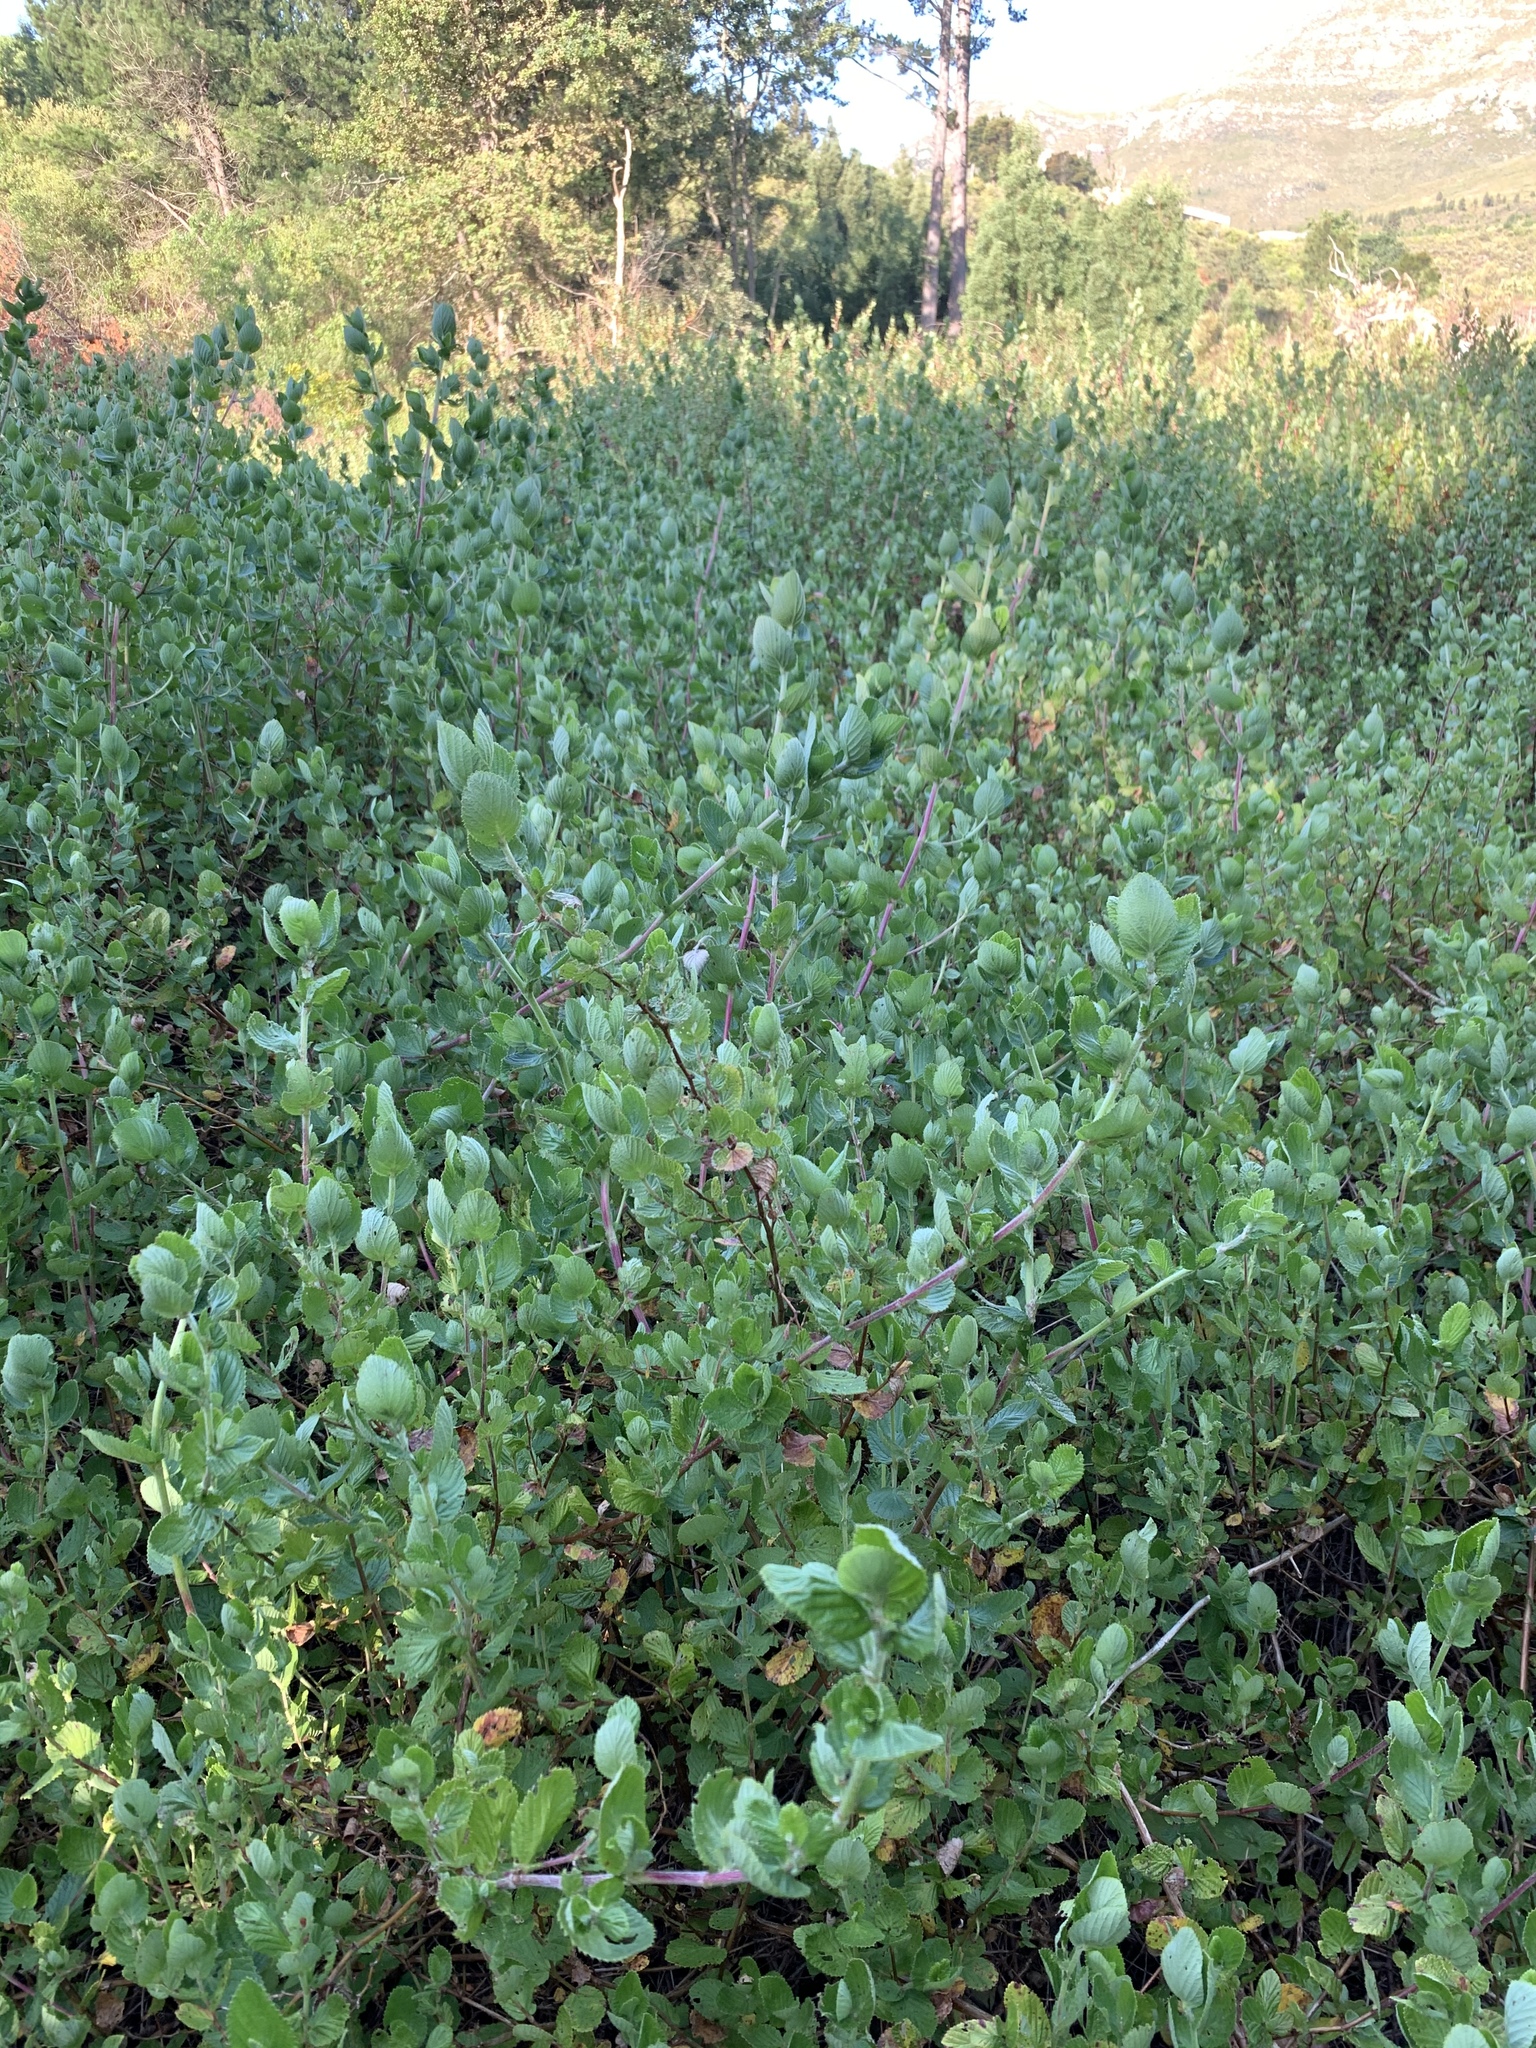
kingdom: Plantae
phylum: Tracheophyta
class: Magnoliopsida
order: Rosales
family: Rosaceae
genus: Cliffortia
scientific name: Cliffortia odorata
